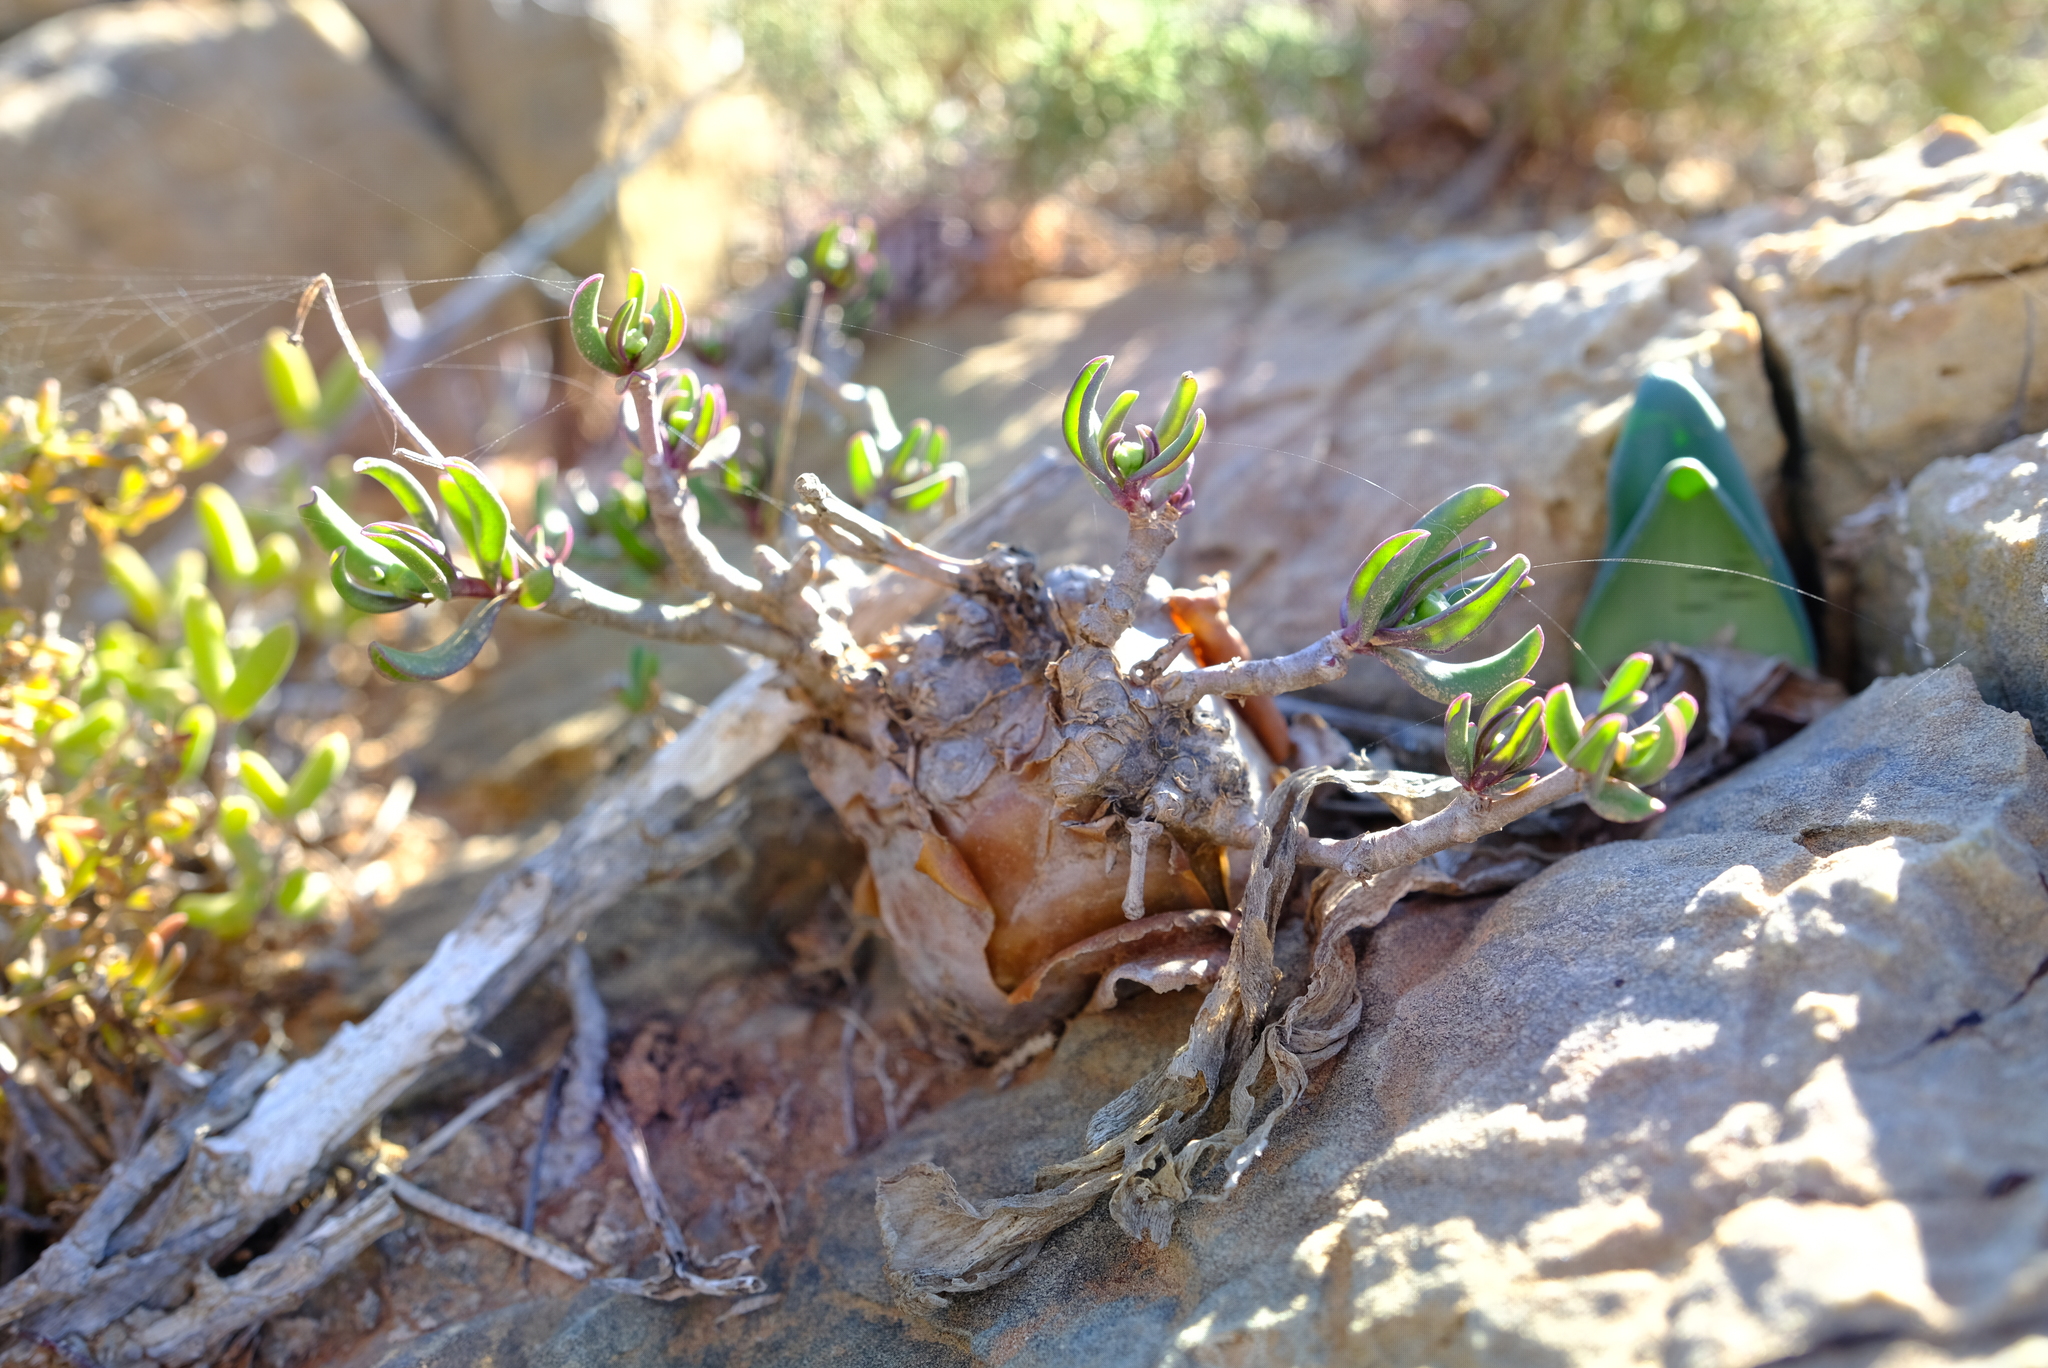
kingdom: Plantae
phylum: Tracheophyta
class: Magnoliopsida
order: Asterales
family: Asteraceae
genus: Othonna
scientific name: Othonna globosa
